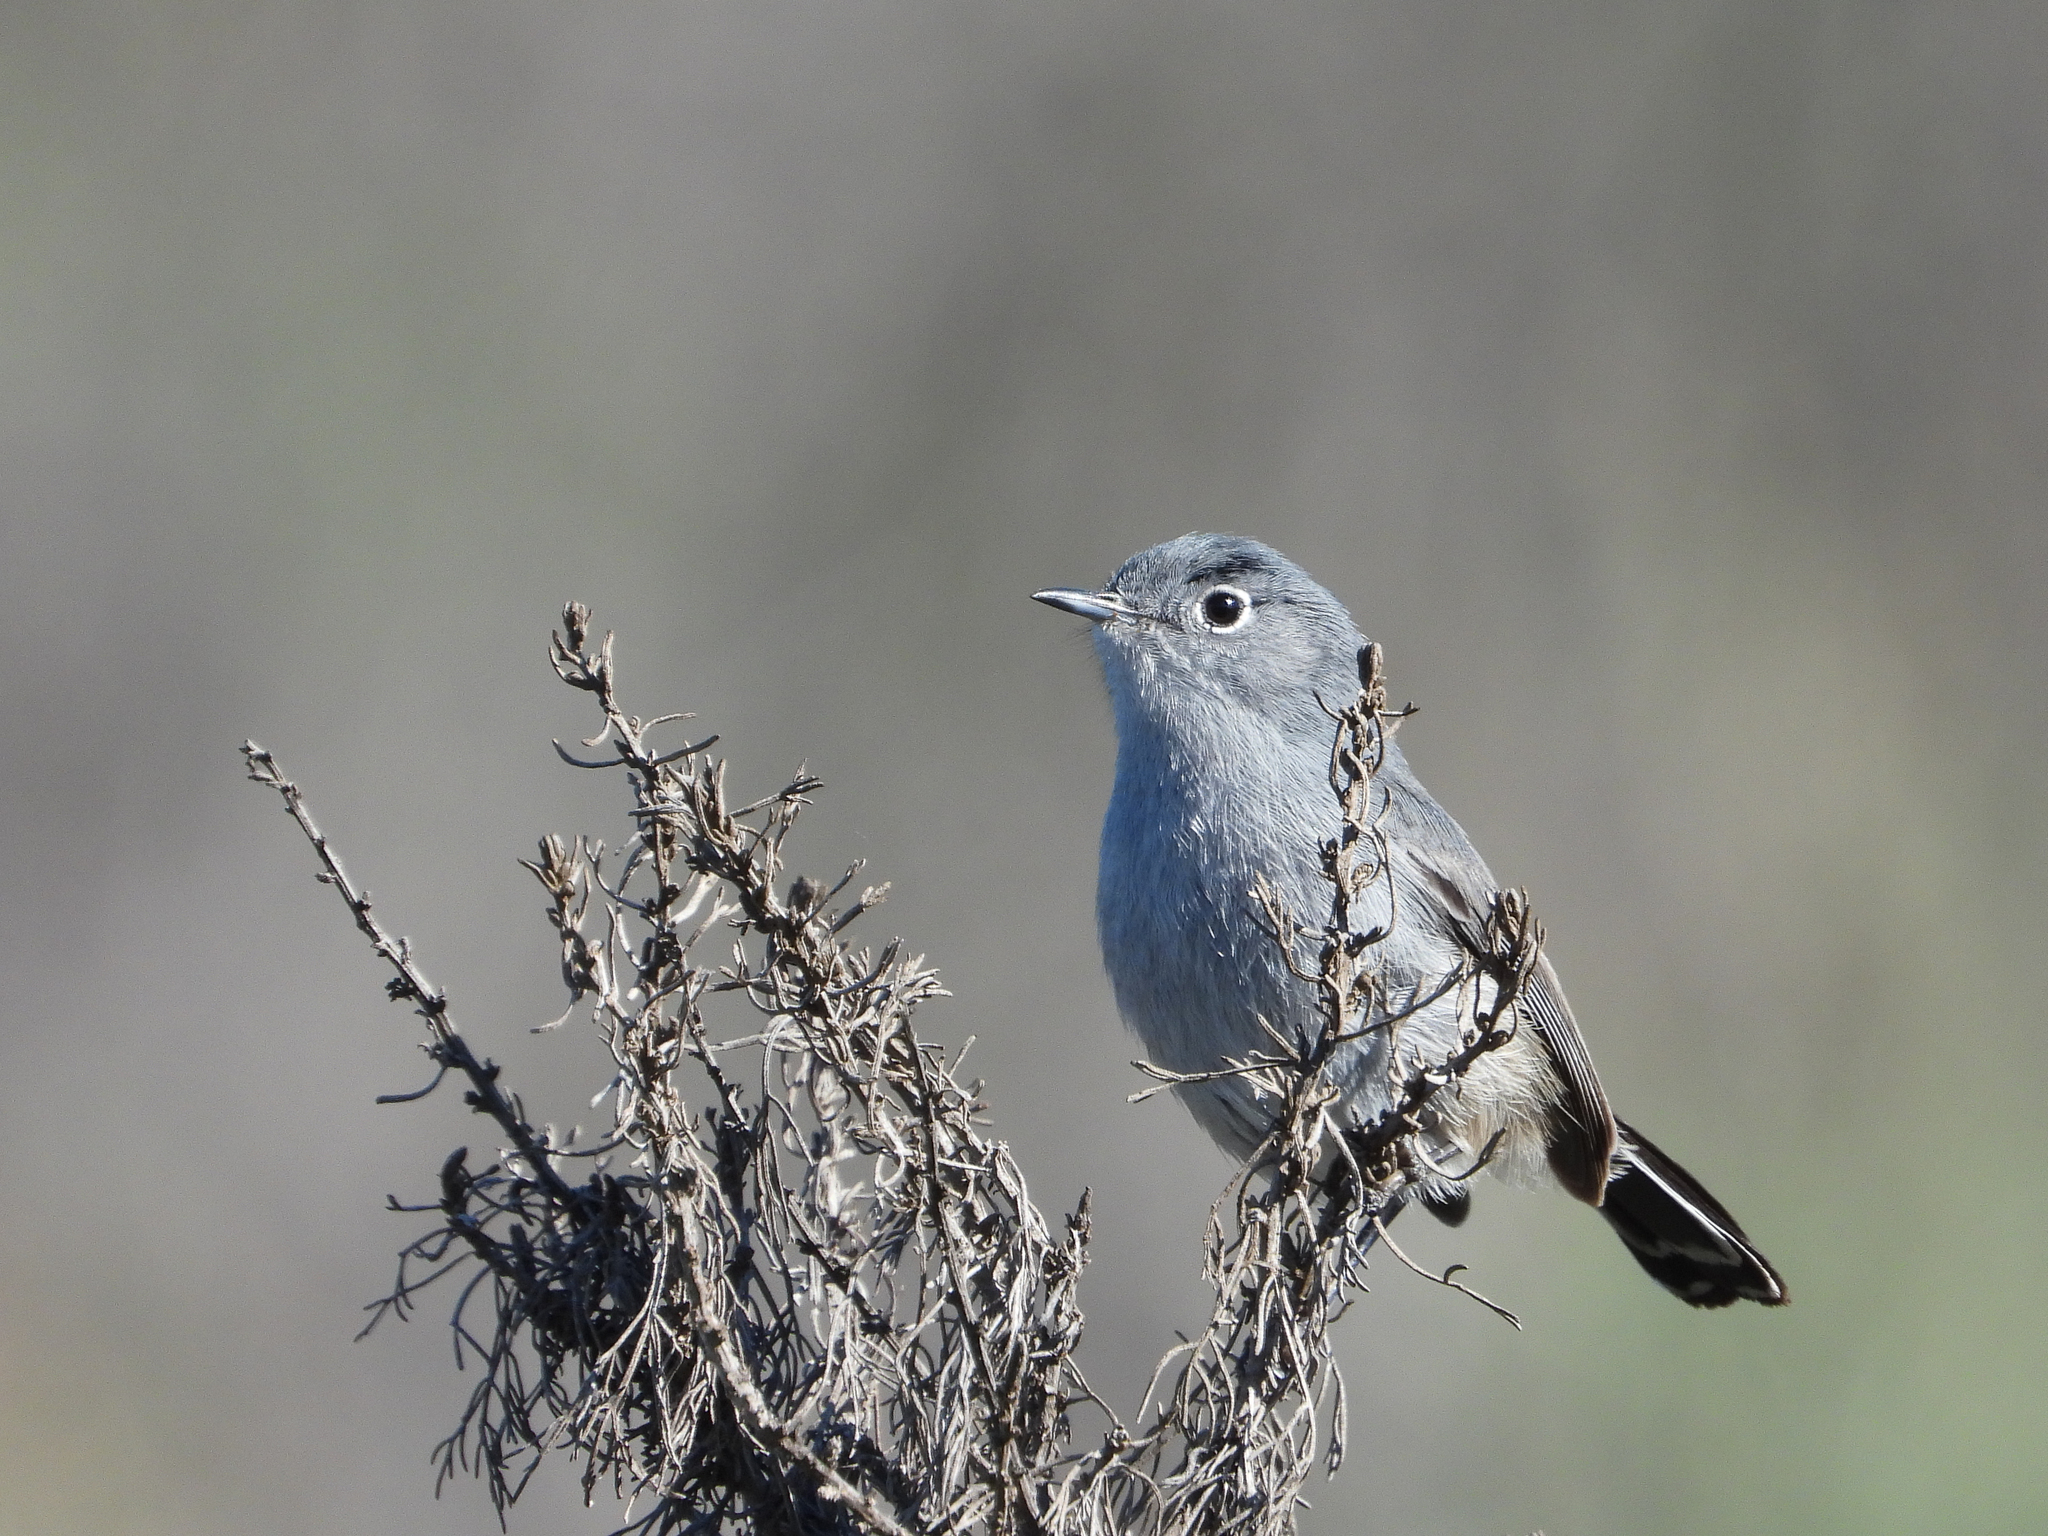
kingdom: Animalia
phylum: Chordata
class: Aves
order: Passeriformes
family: Polioptilidae
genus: Polioptila
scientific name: Polioptila californica
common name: California gnatcatcher
